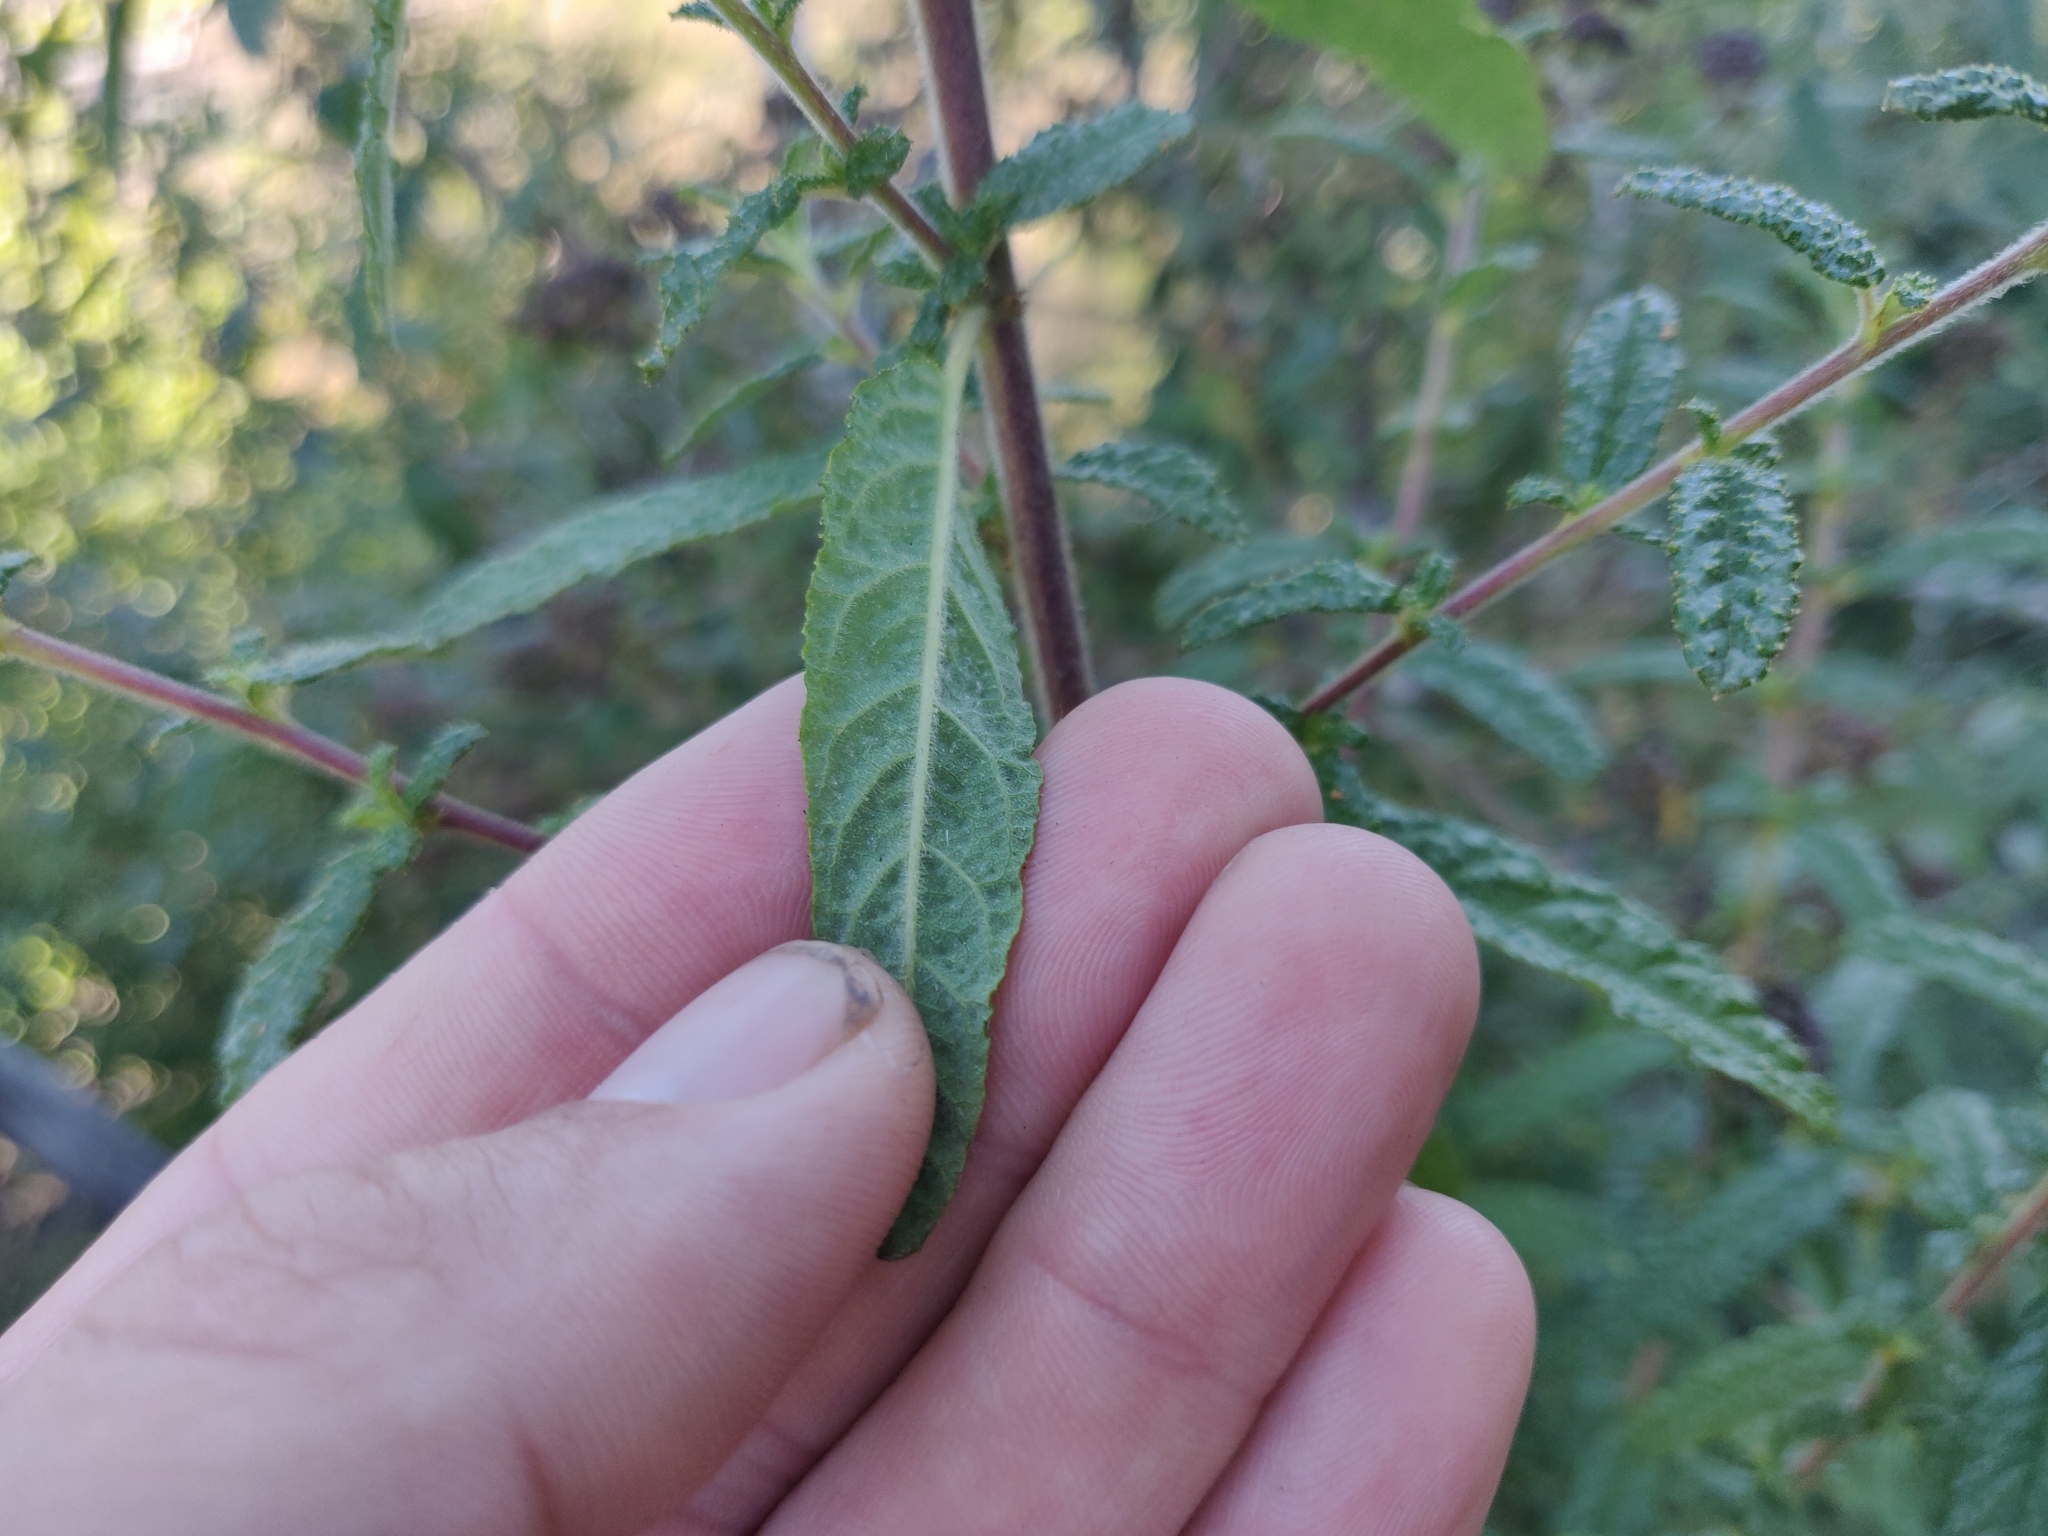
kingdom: Plantae
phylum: Tracheophyta
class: Magnoliopsida
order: Rosales
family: Rhamnaceae
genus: Ceanothus
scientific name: Ceanothus papillosus
